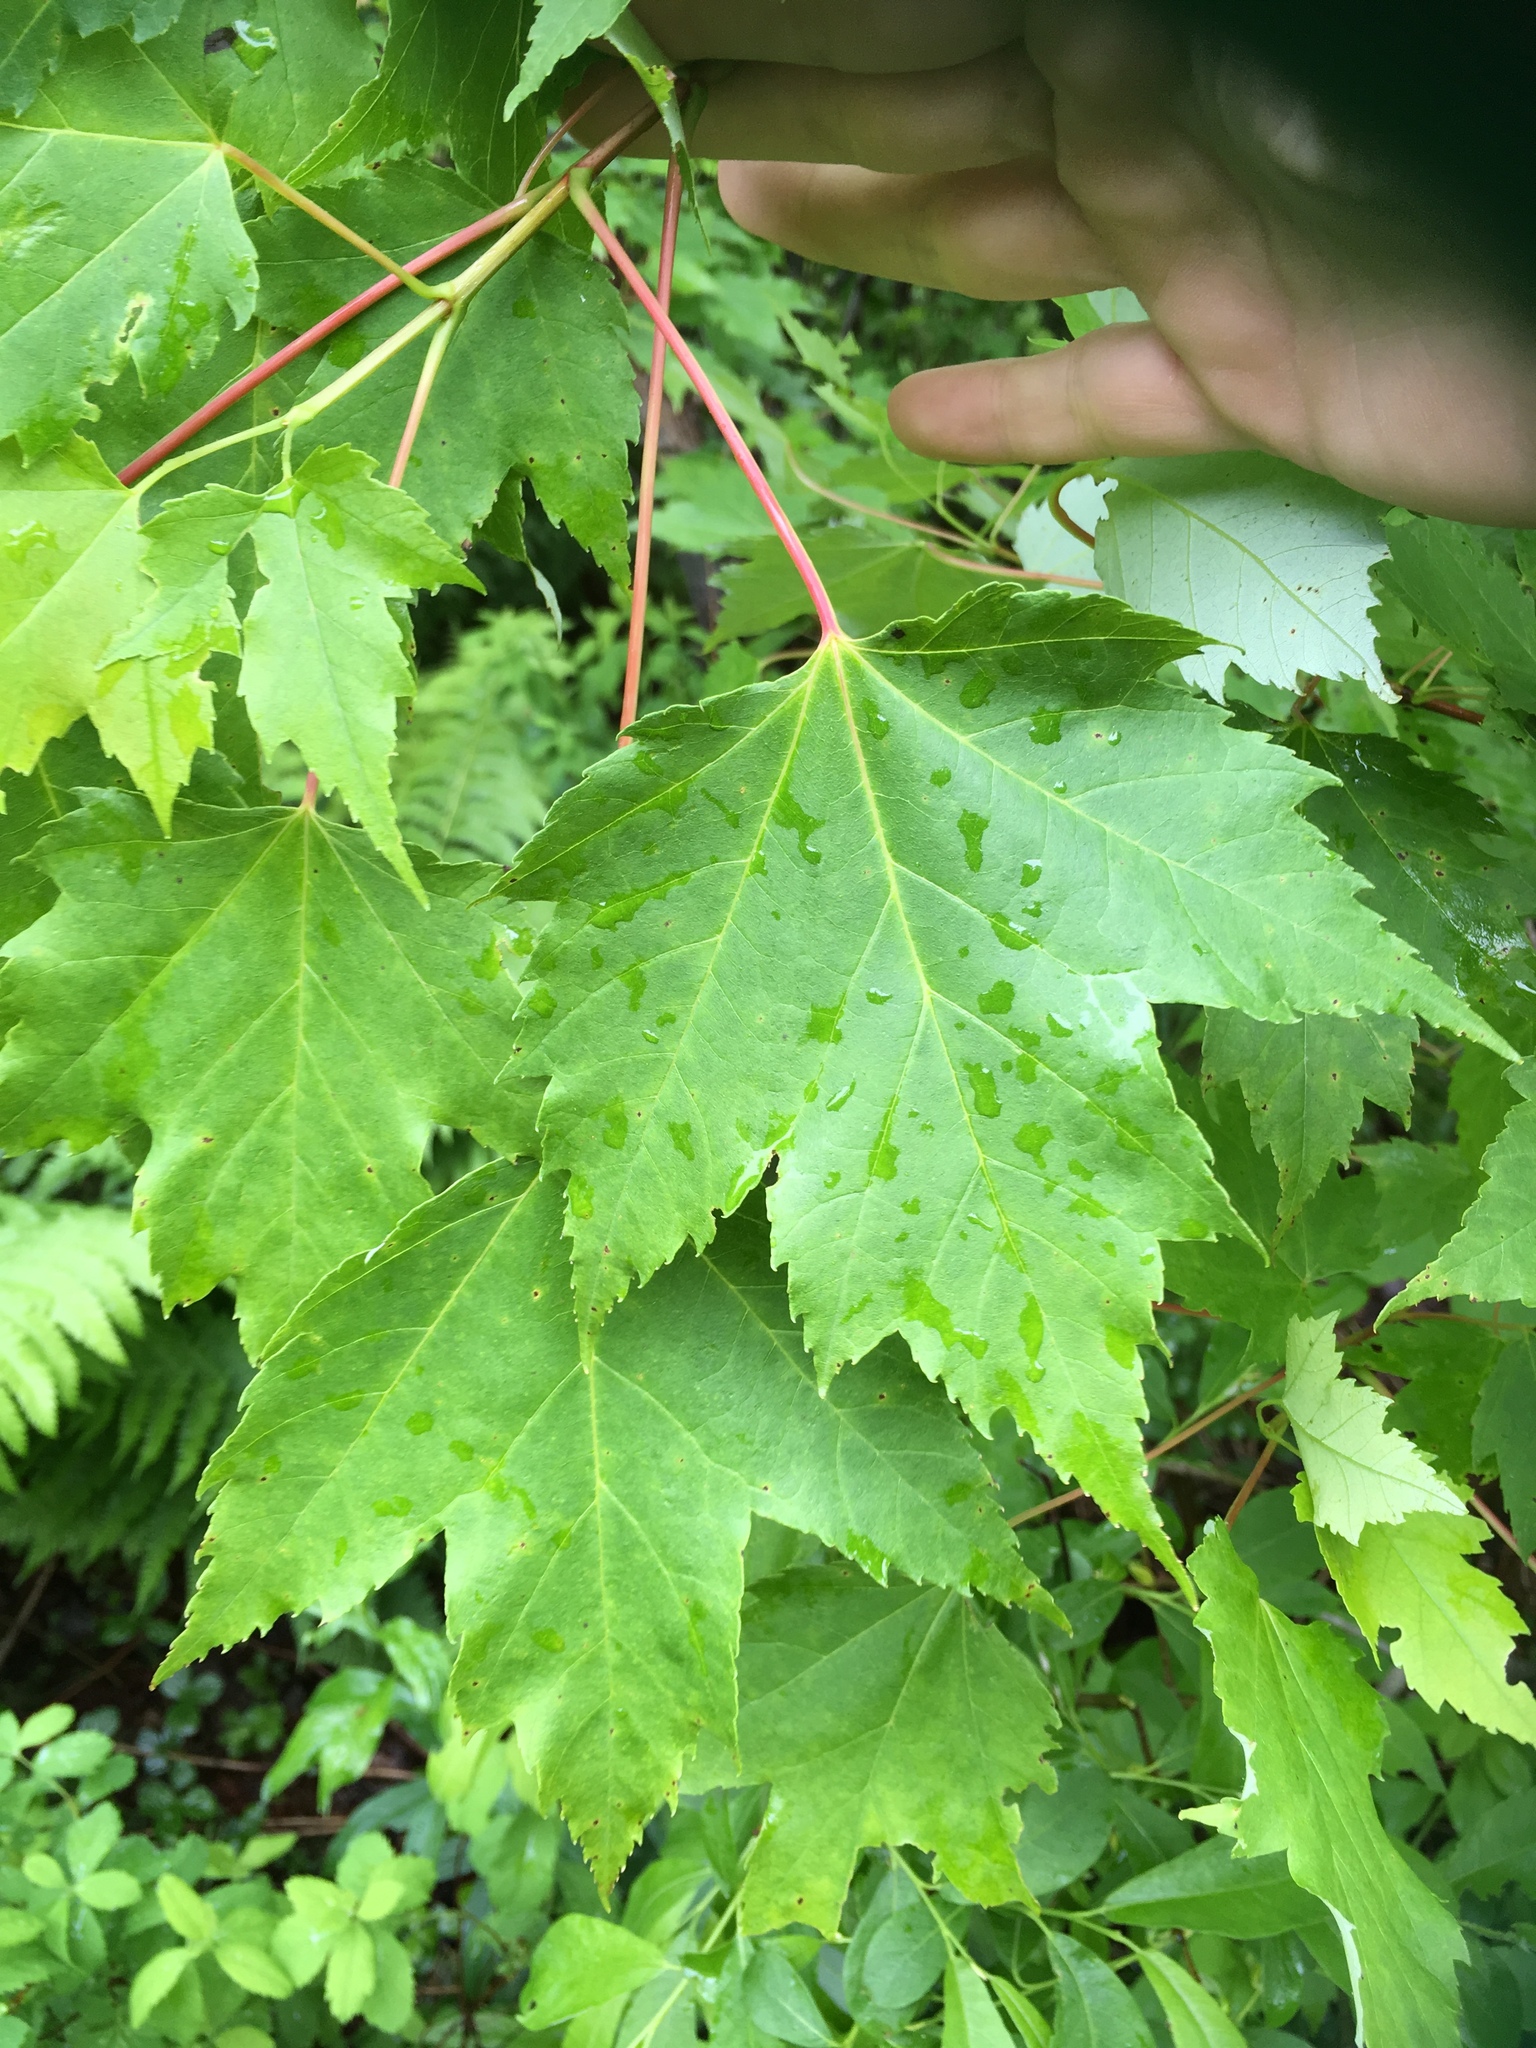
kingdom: Plantae
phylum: Tracheophyta
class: Magnoliopsida
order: Sapindales
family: Sapindaceae
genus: Acer
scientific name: Acer rubrum
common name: Red maple
